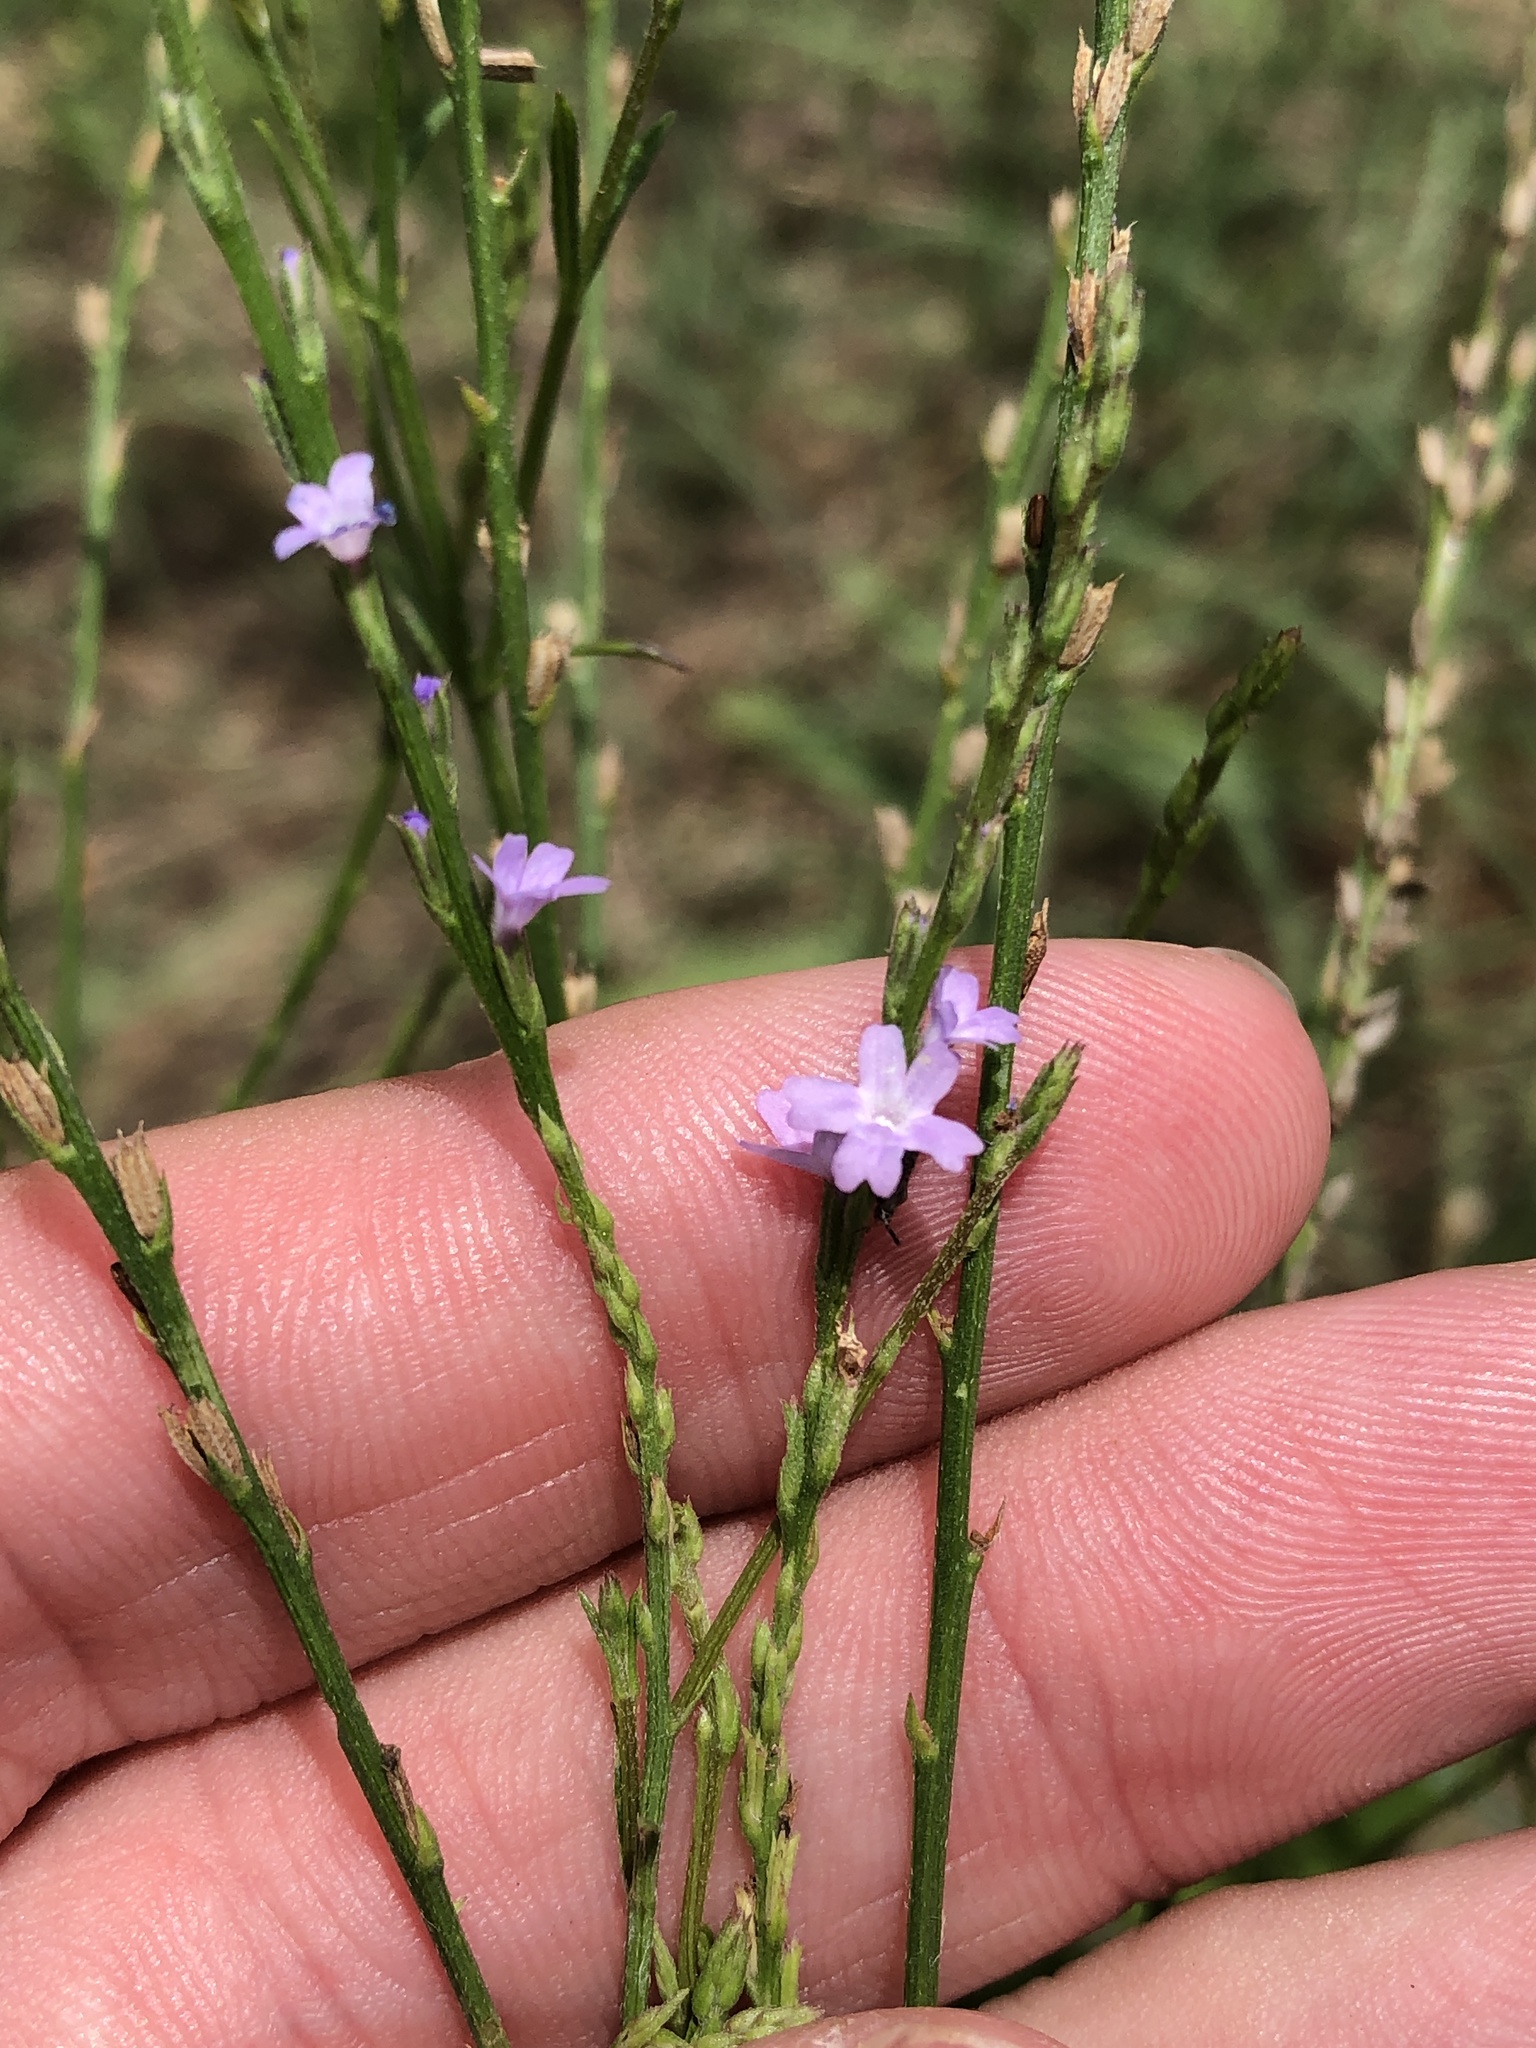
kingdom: Plantae
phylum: Tracheophyta
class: Magnoliopsida
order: Lamiales
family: Verbenaceae
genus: Verbena
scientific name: Verbena halei
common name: Texas vervain
